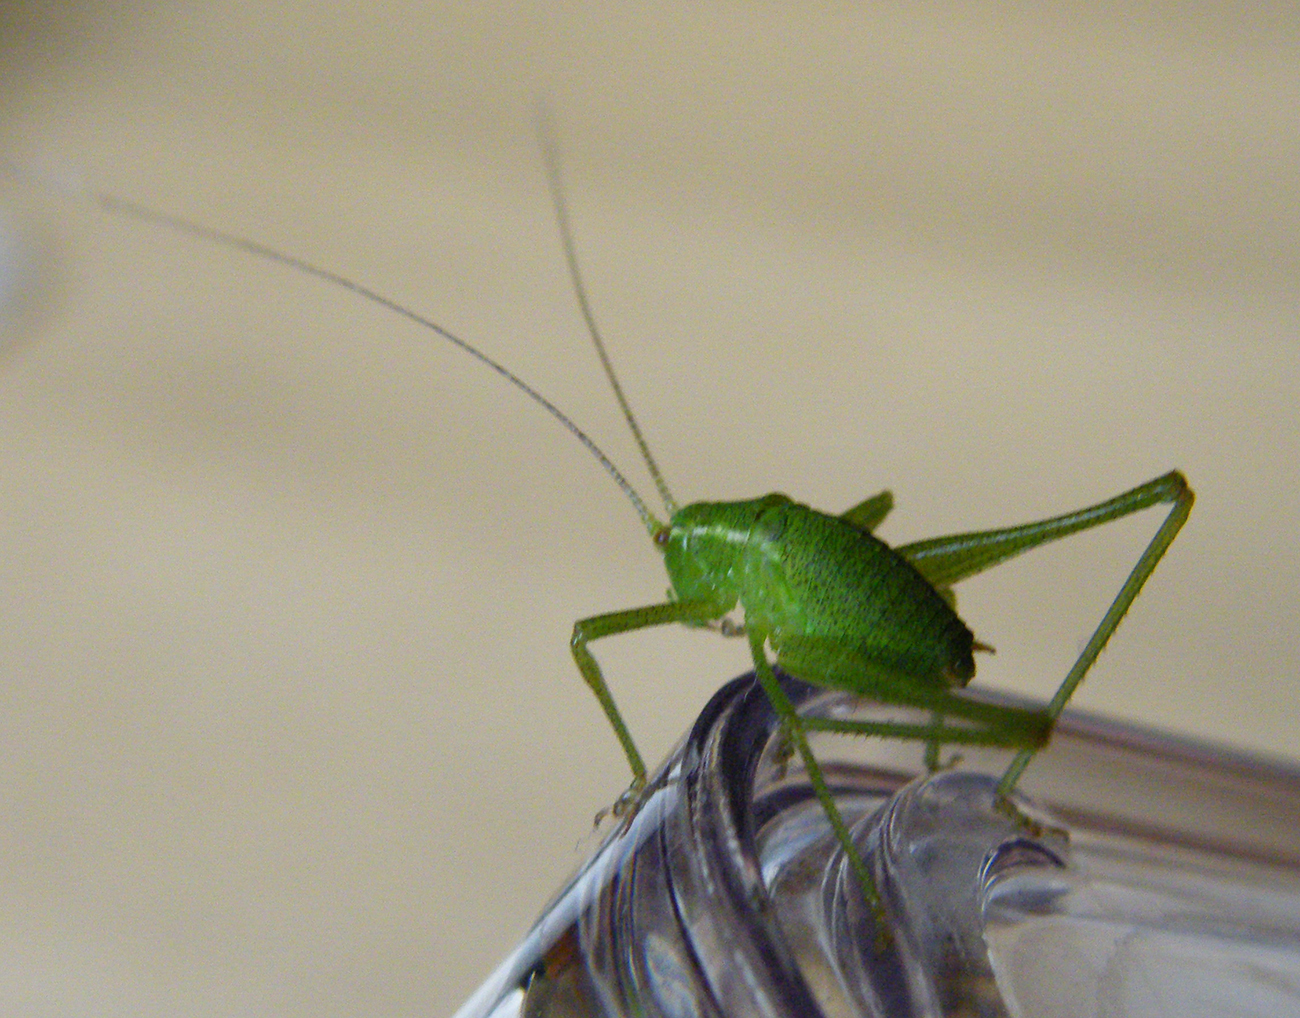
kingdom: Animalia
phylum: Arthropoda
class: Insecta
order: Orthoptera
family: Tettigoniidae
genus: Leptophyes
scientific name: Leptophyes punctatissima
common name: Speckled bush-cricket
